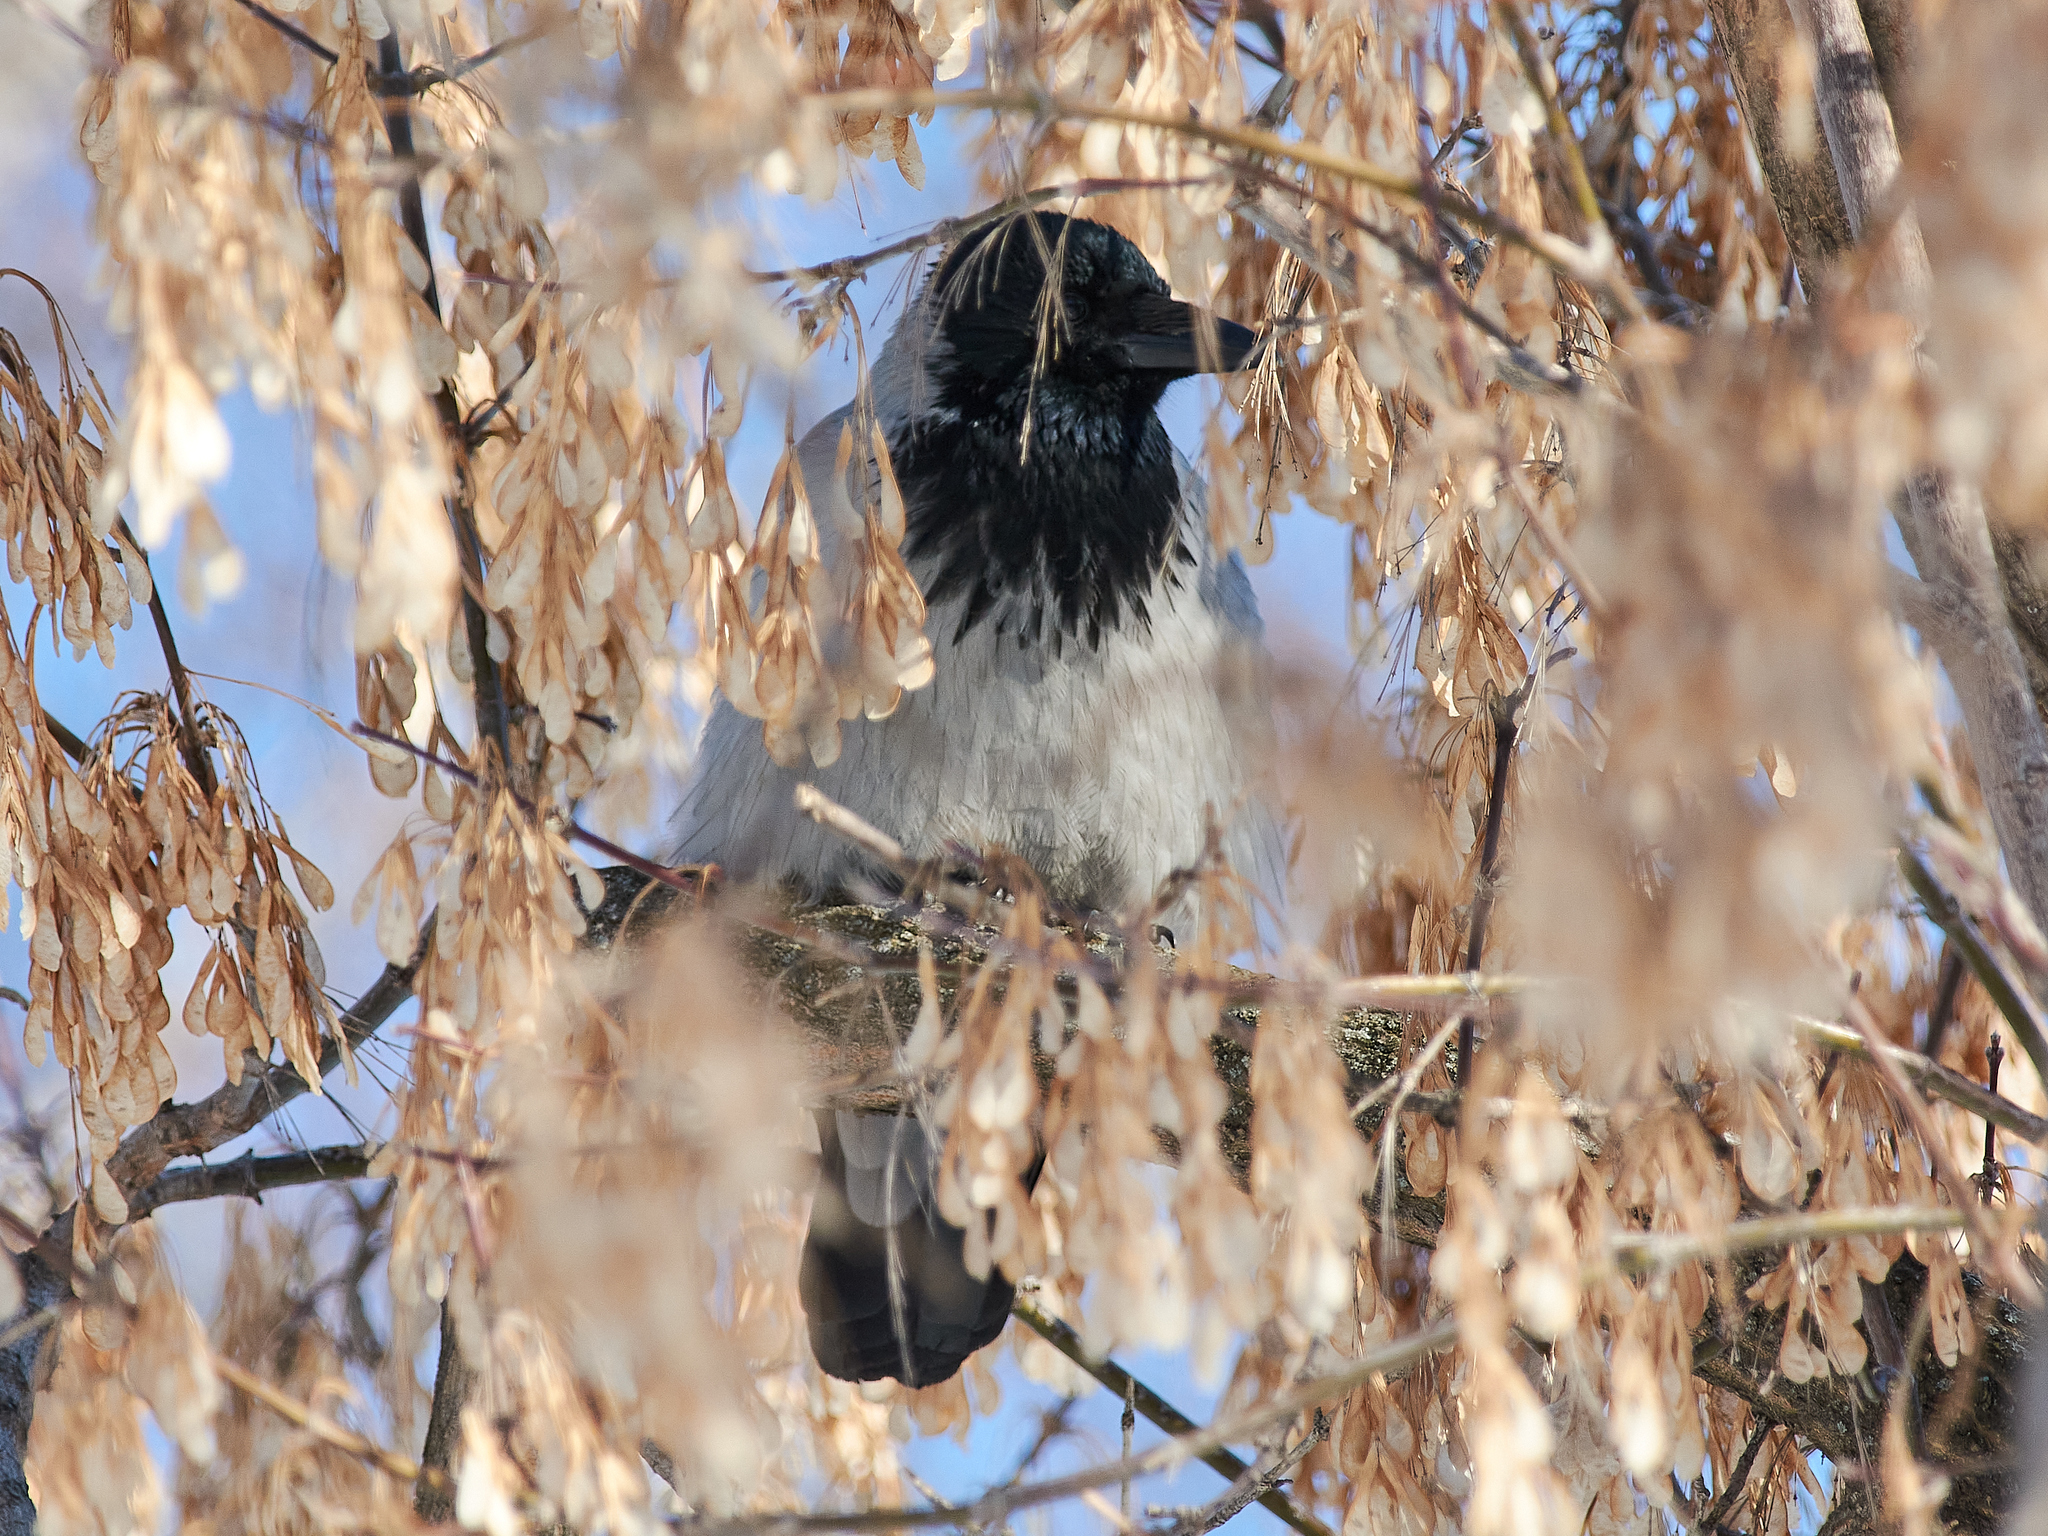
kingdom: Animalia
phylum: Chordata
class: Aves
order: Passeriformes
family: Corvidae
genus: Corvus
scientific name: Corvus cornix
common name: Hooded crow
